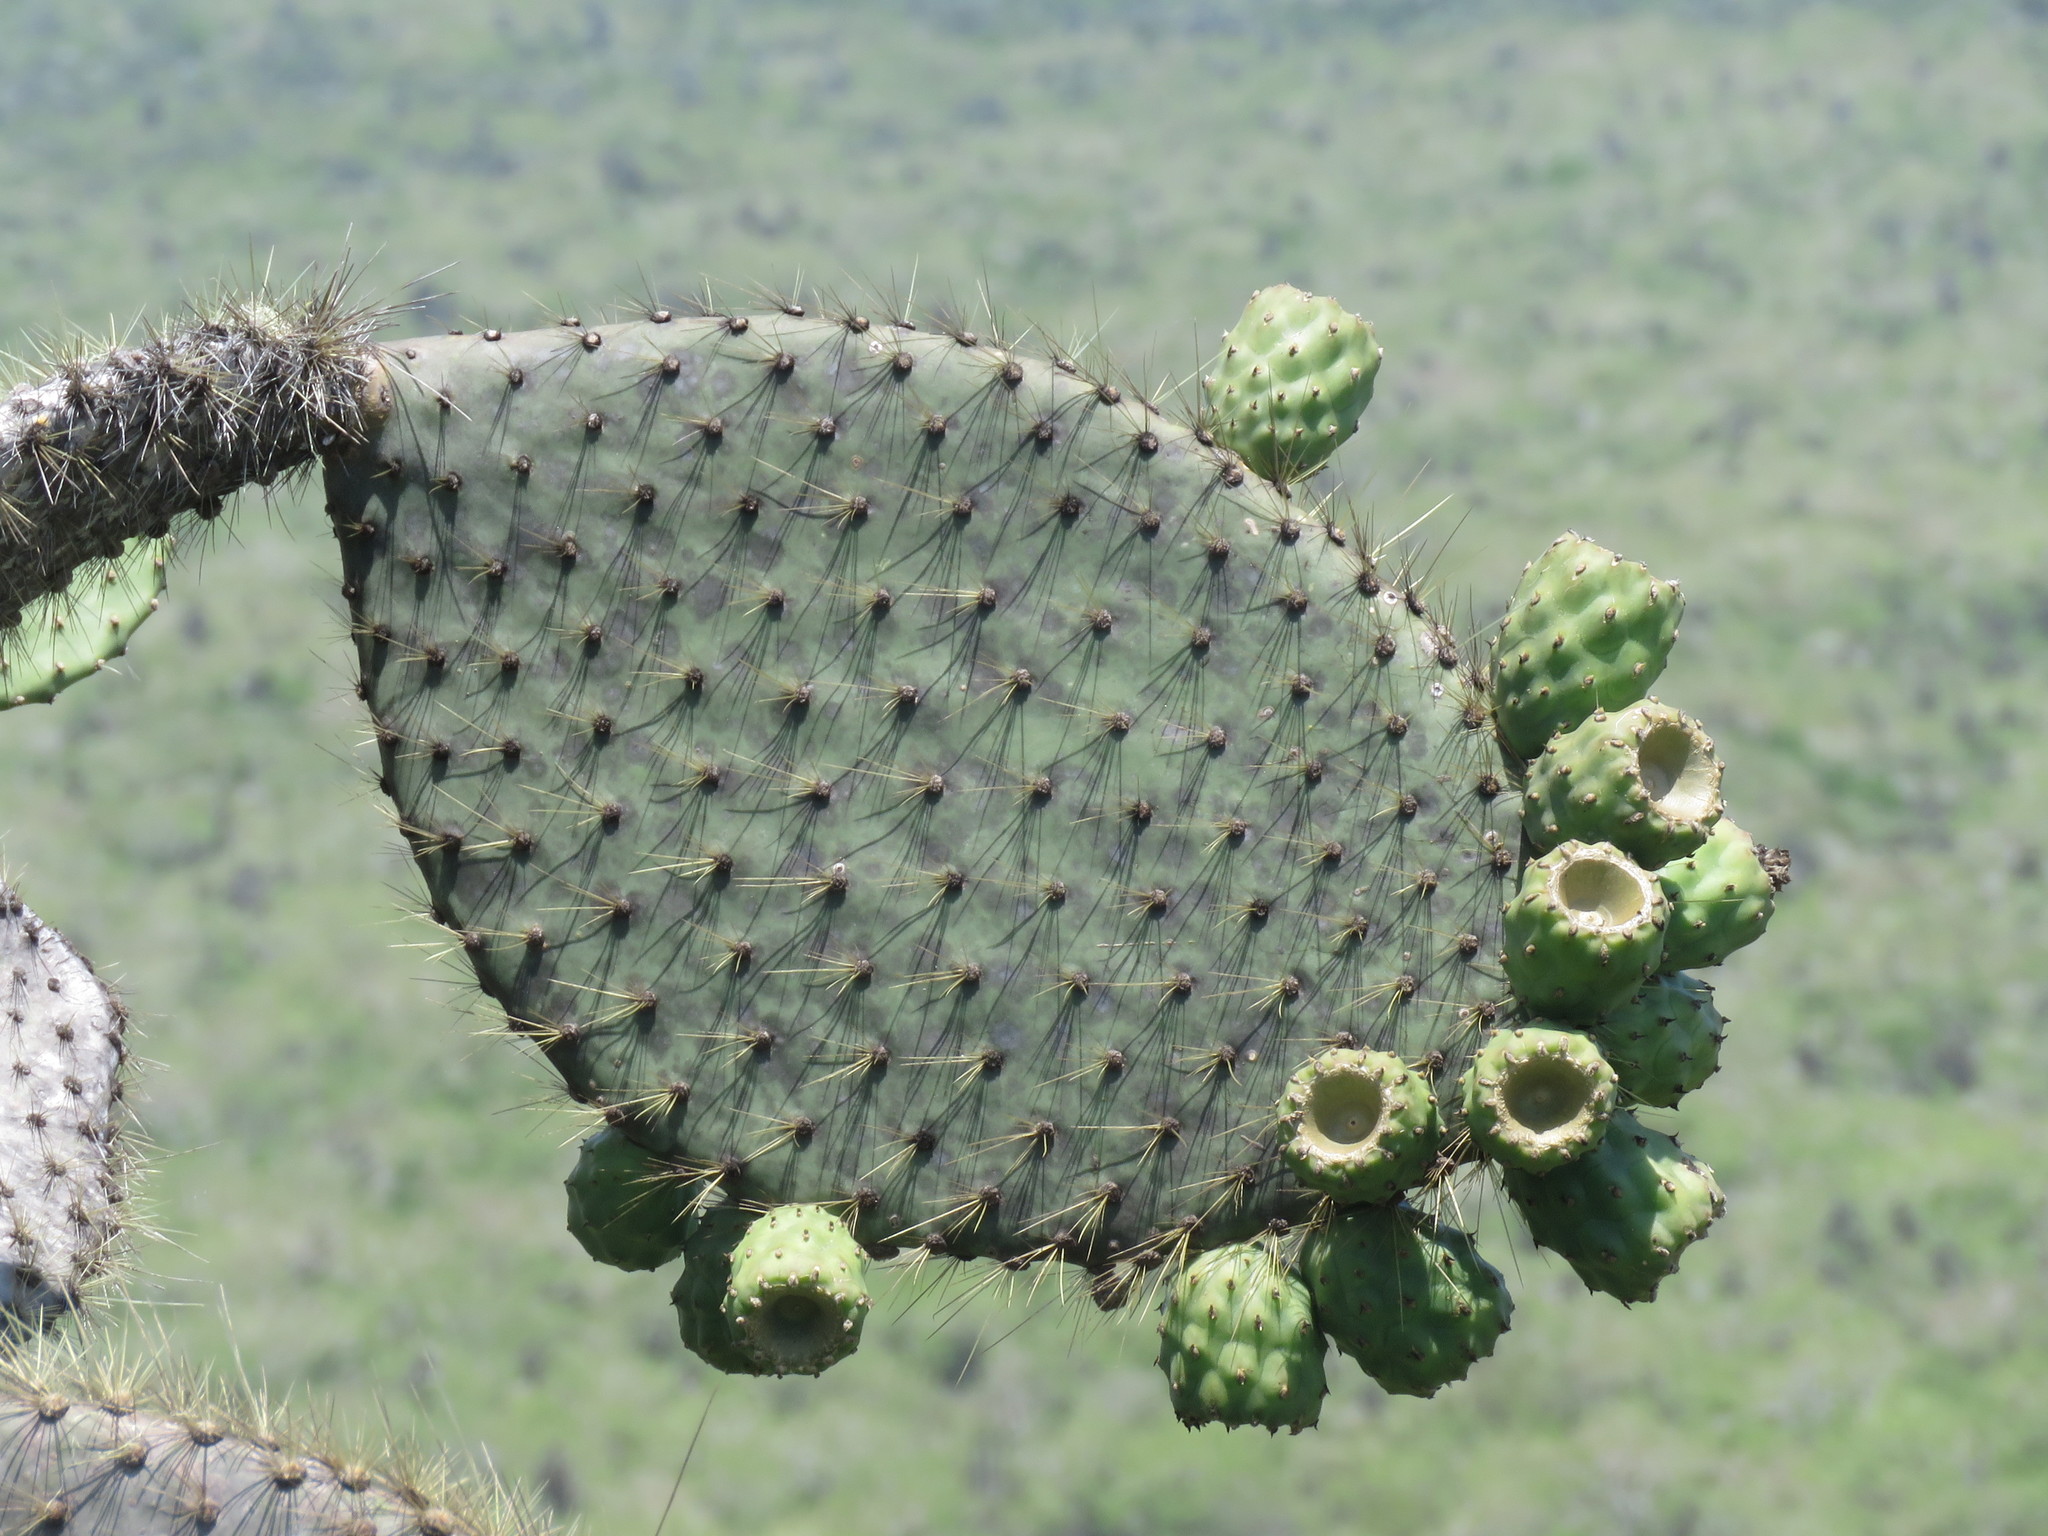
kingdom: Plantae
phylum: Tracheophyta
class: Magnoliopsida
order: Caryophyllales
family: Cactaceae
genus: Opuntia
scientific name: Opuntia galapageia
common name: Galápagos prickly pear
